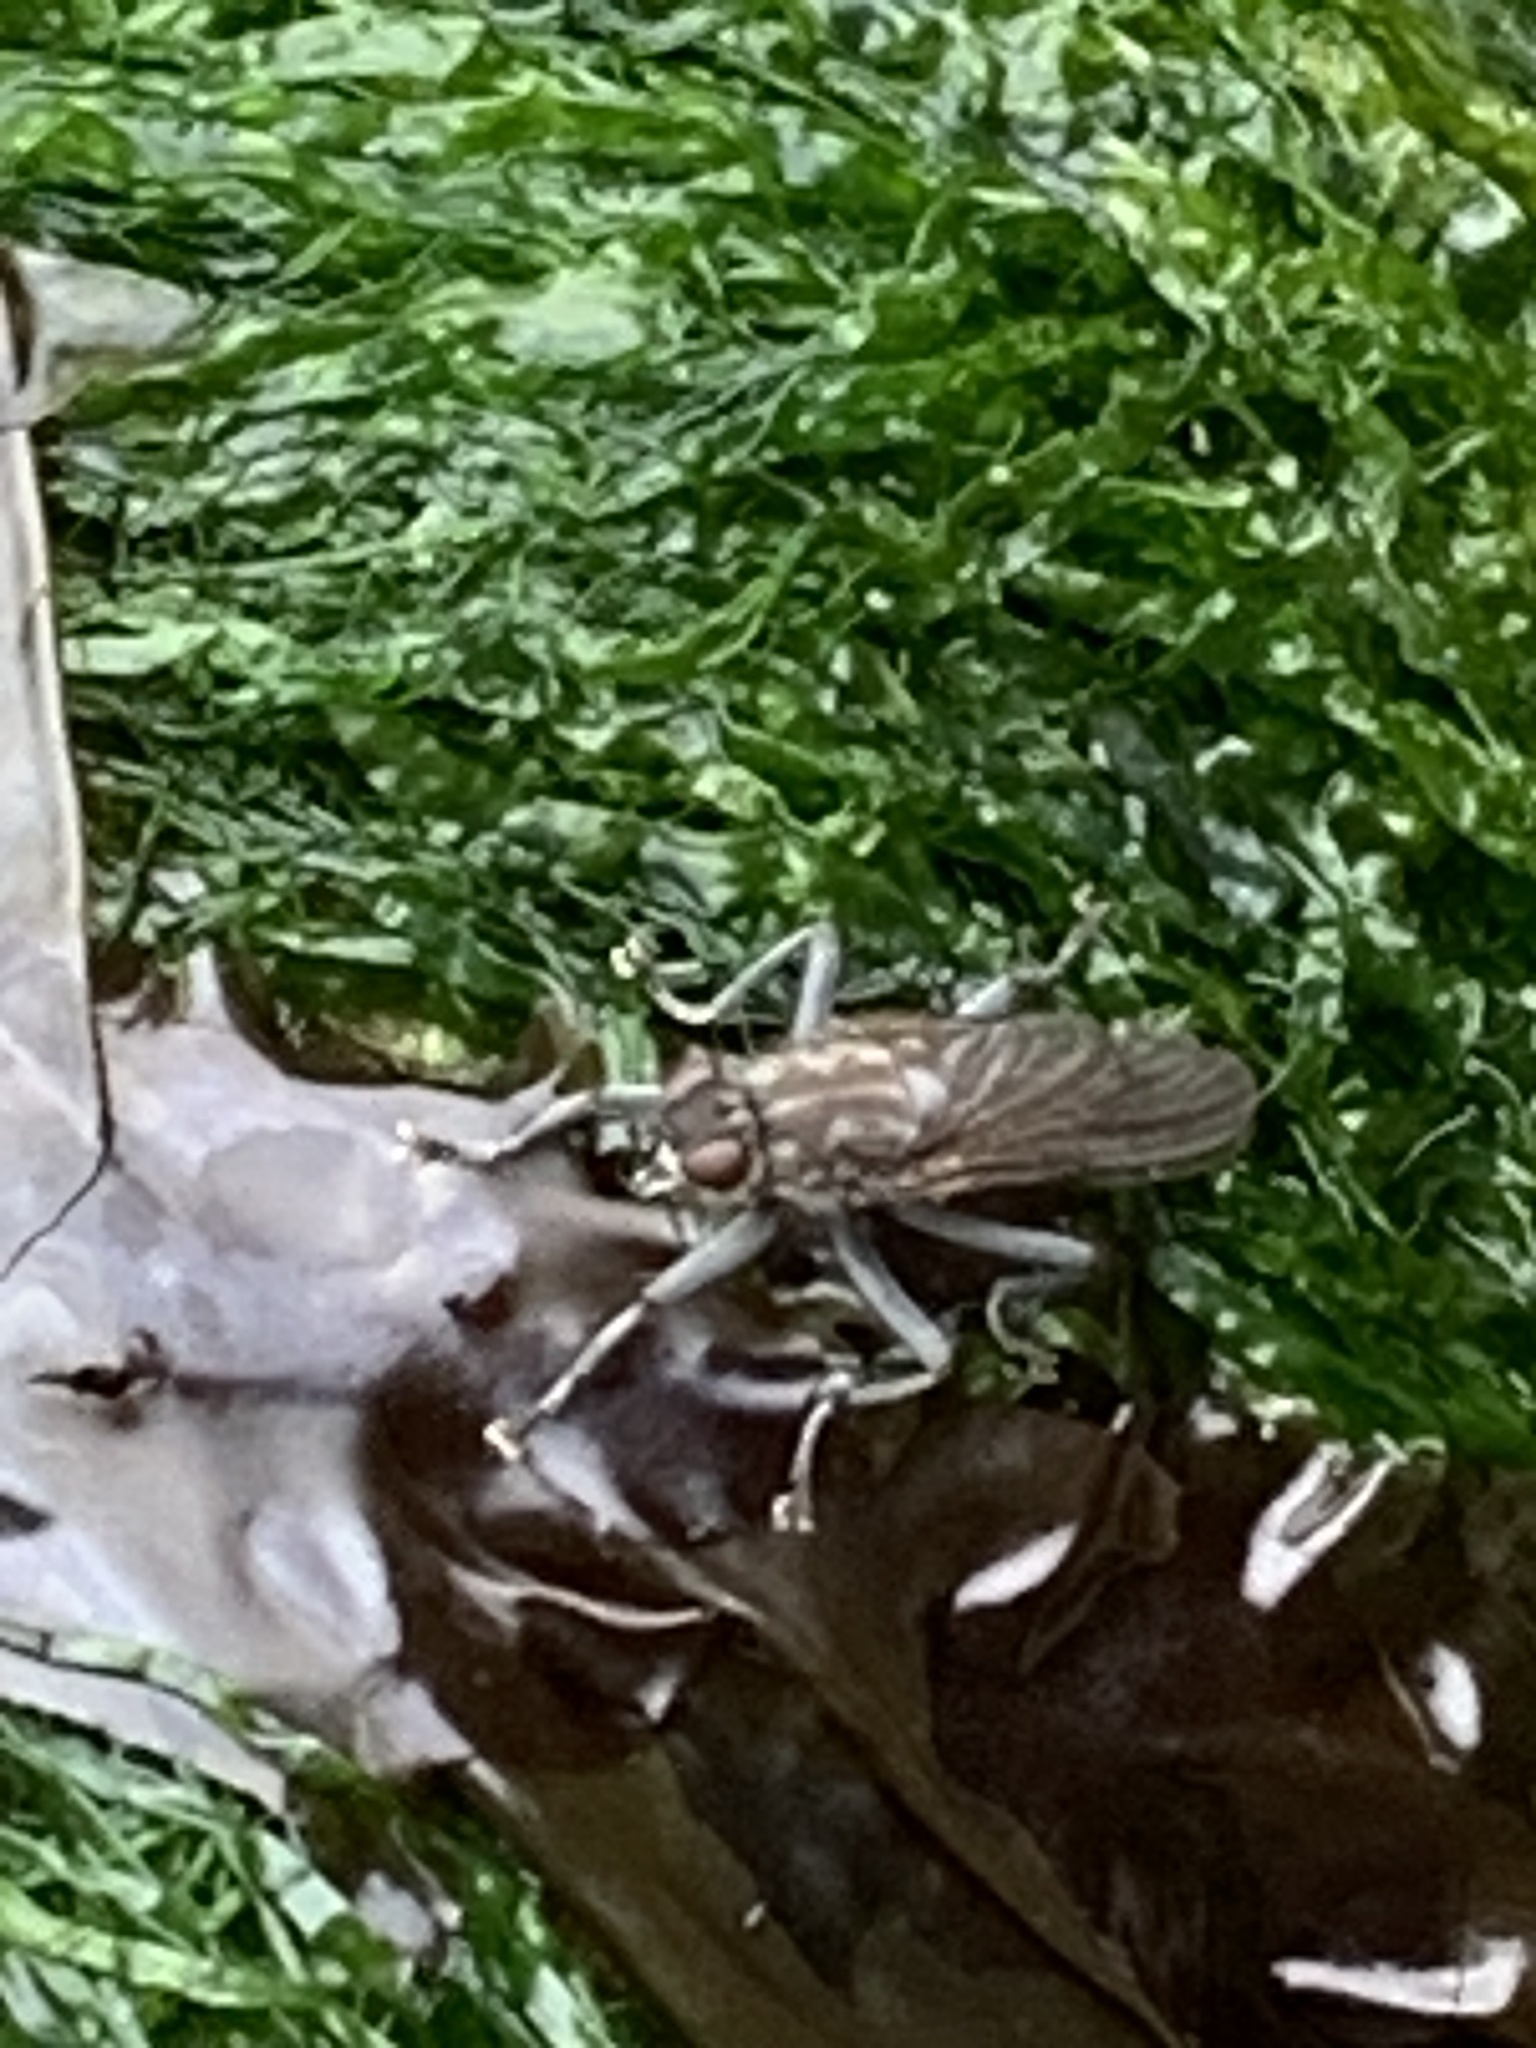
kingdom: Animalia
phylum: Arthropoda
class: Insecta
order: Diptera
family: Scathophagidae
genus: Ceratinostoma
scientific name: Ceratinostoma ostiorum
